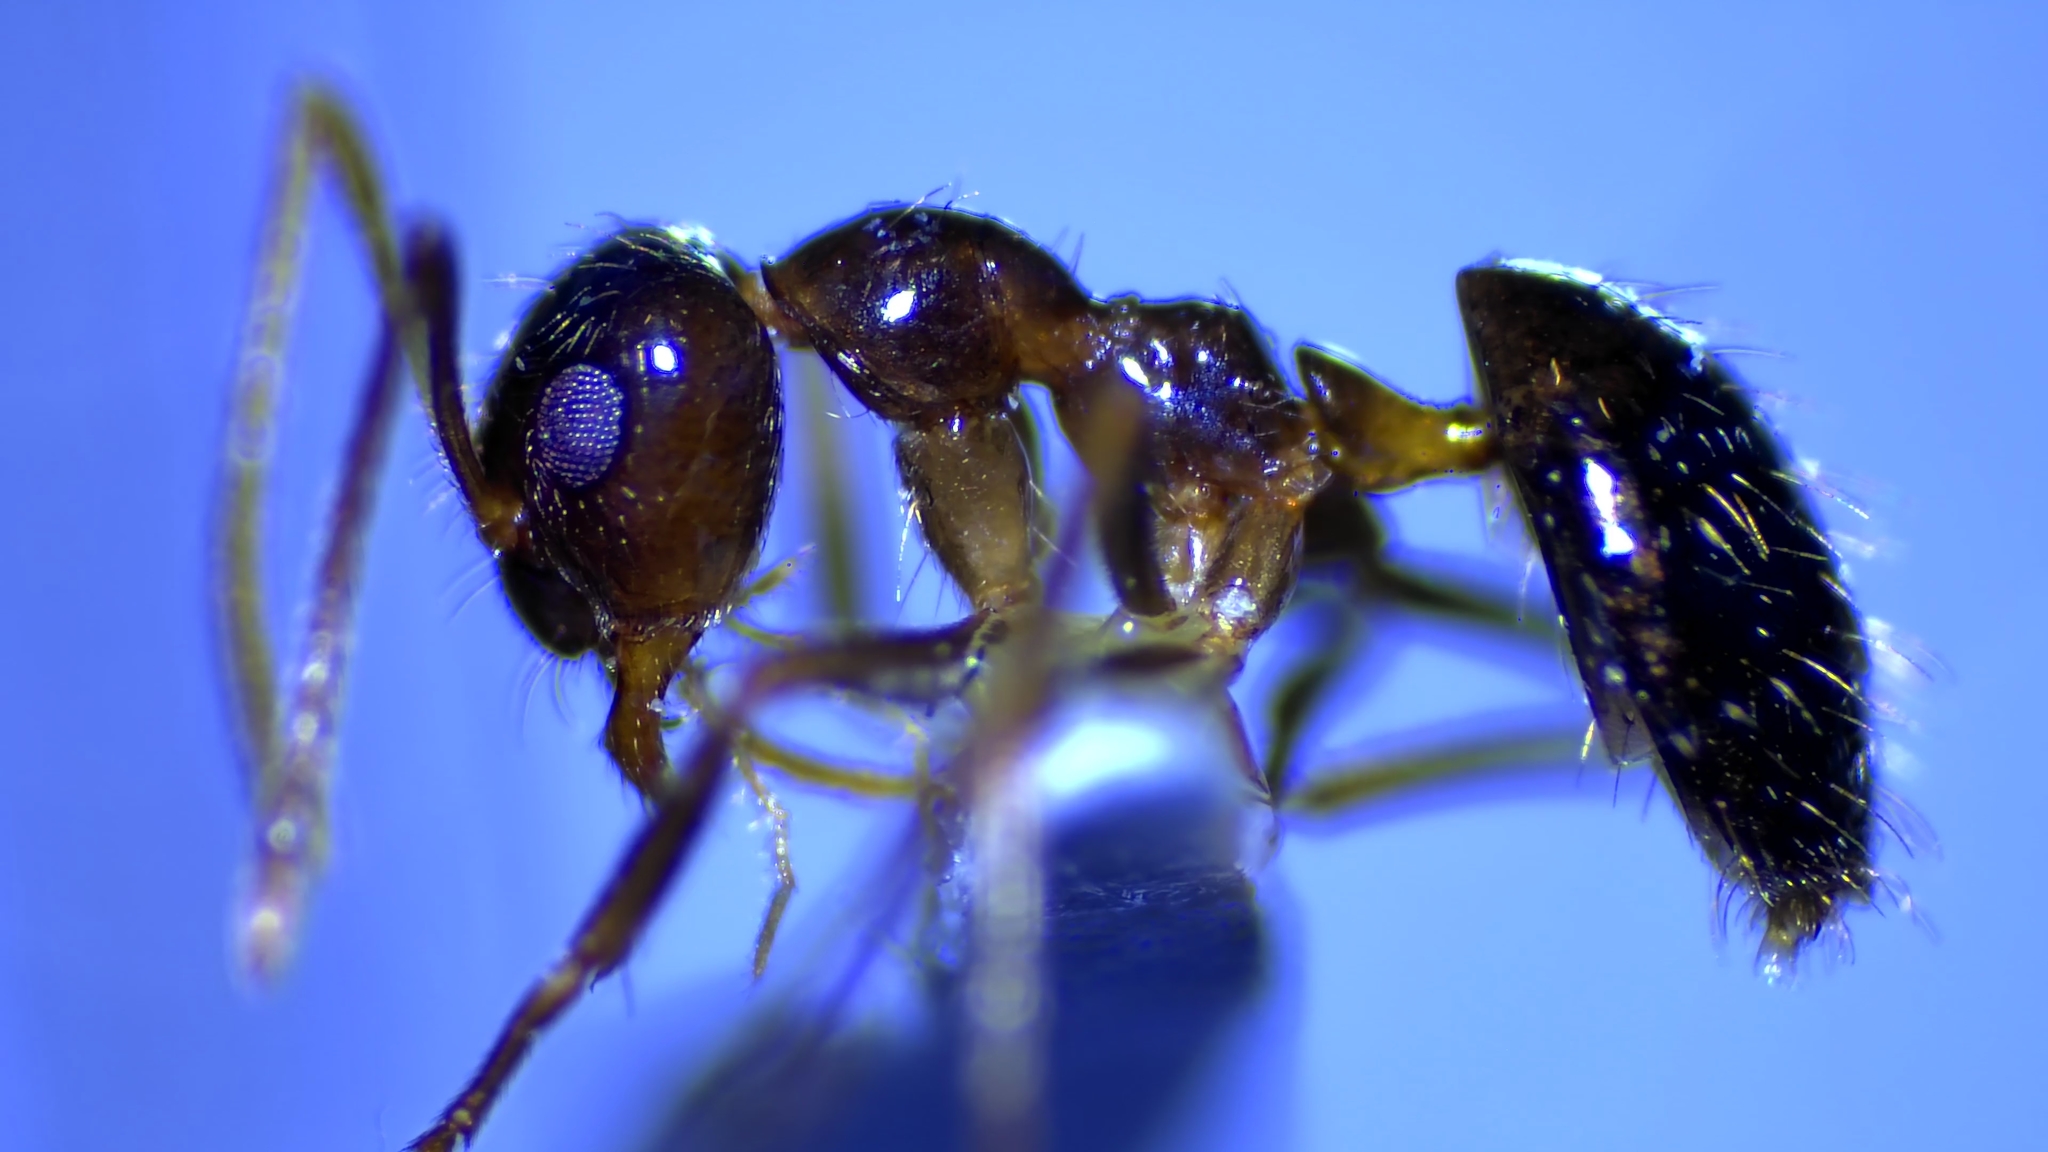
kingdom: Animalia
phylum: Arthropoda
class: Insecta
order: Hymenoptera
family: Formicidae
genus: Prenolepis
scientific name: Prenolepis imparis
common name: Small honey ant
